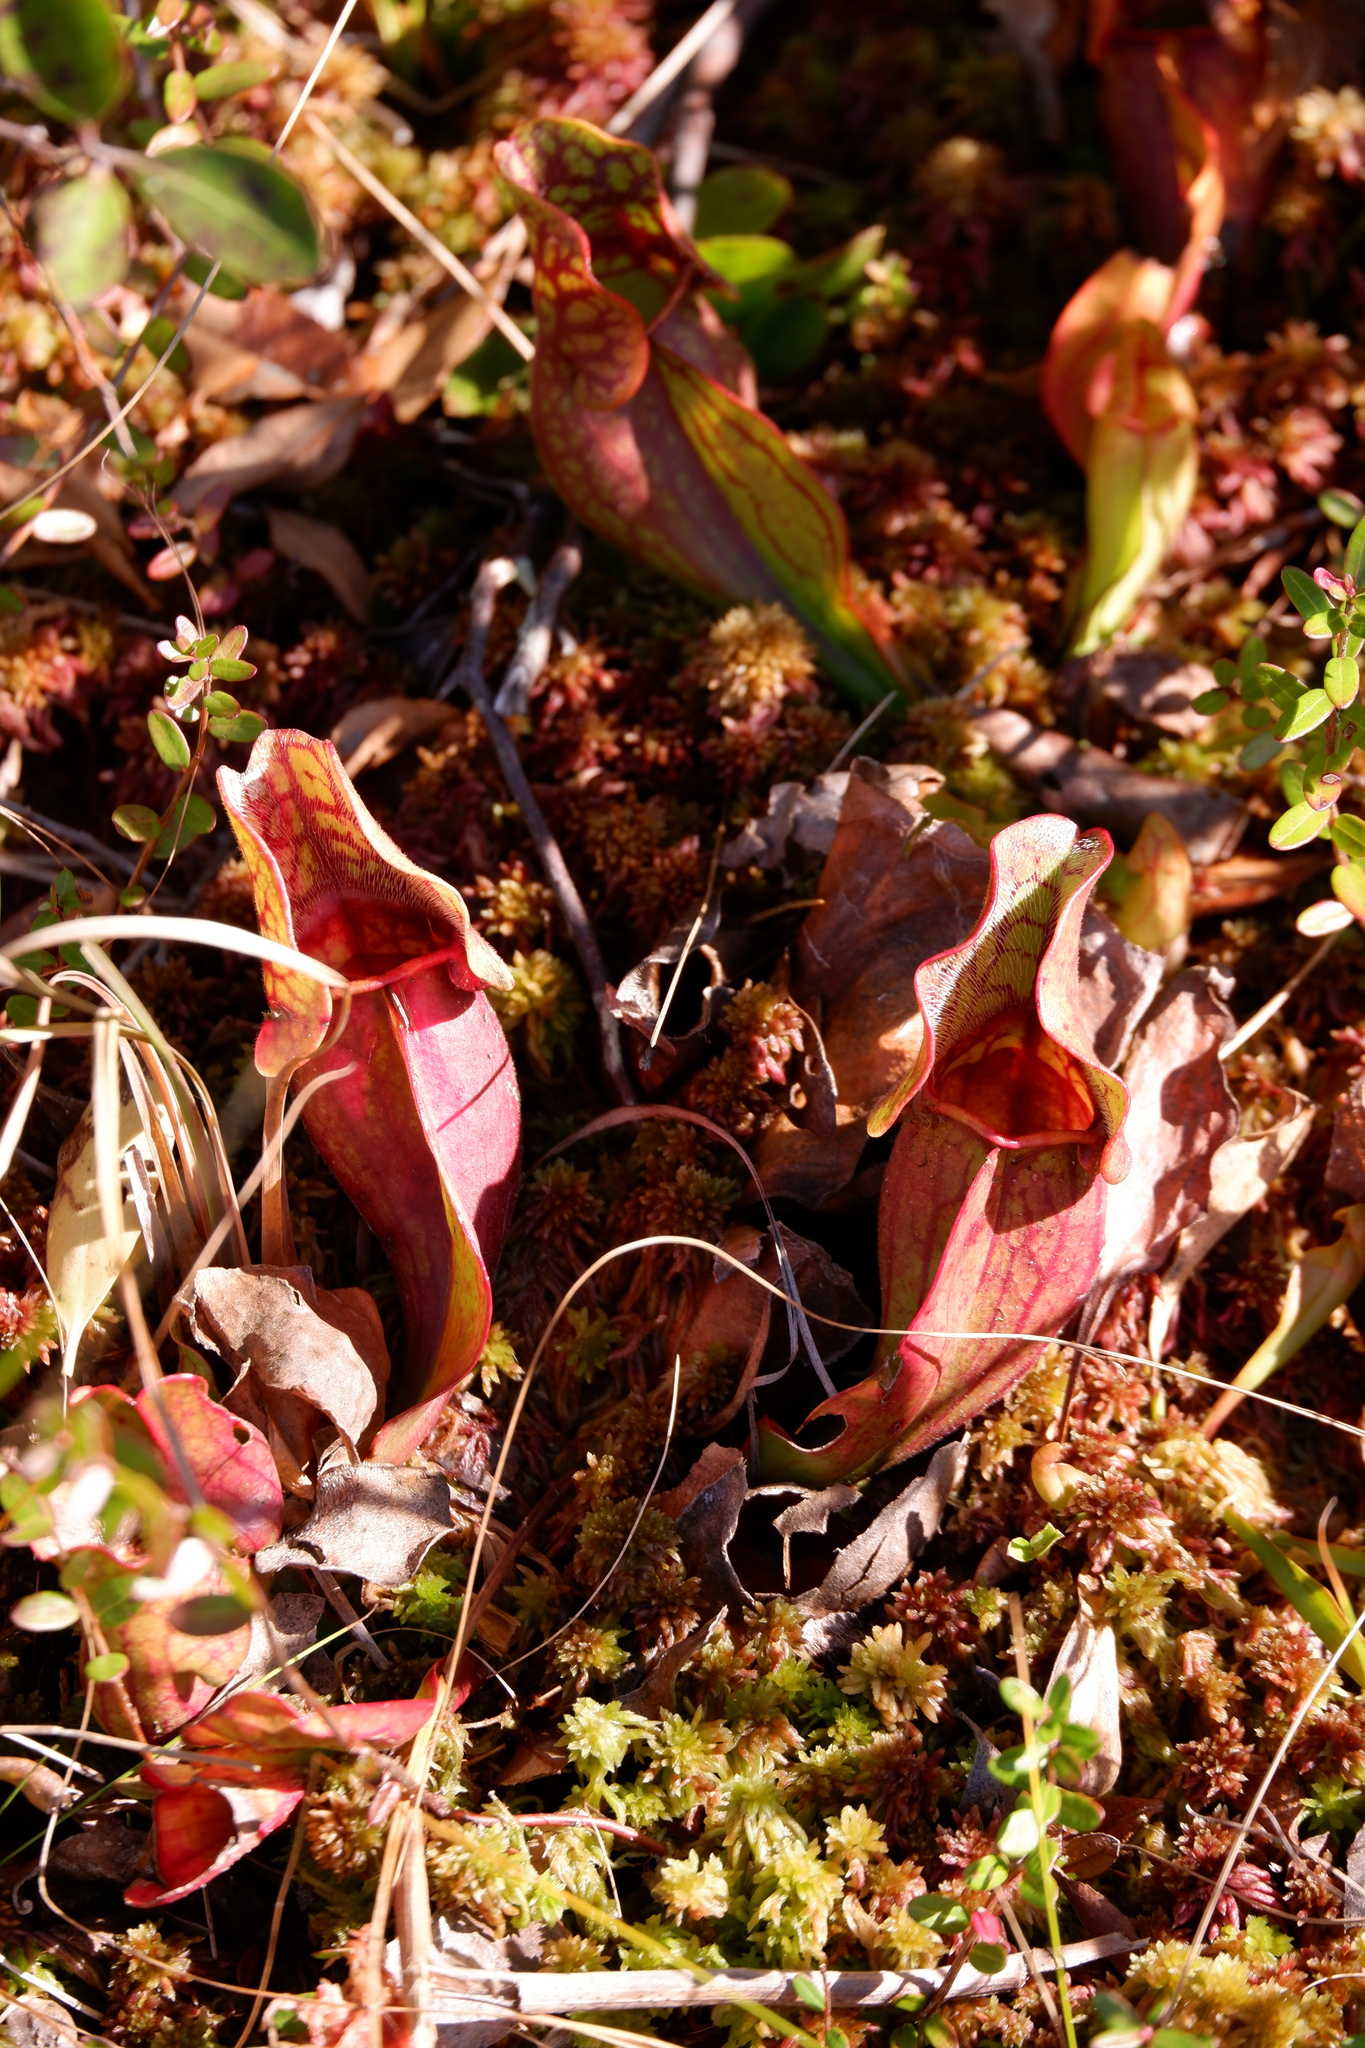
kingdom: Plantae
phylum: Tracheophyta
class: Magnoliopsida
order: Ericales
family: Sarraceniaceae
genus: Sarracenia
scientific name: Sarracenia purpurea
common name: Pitcherplant
